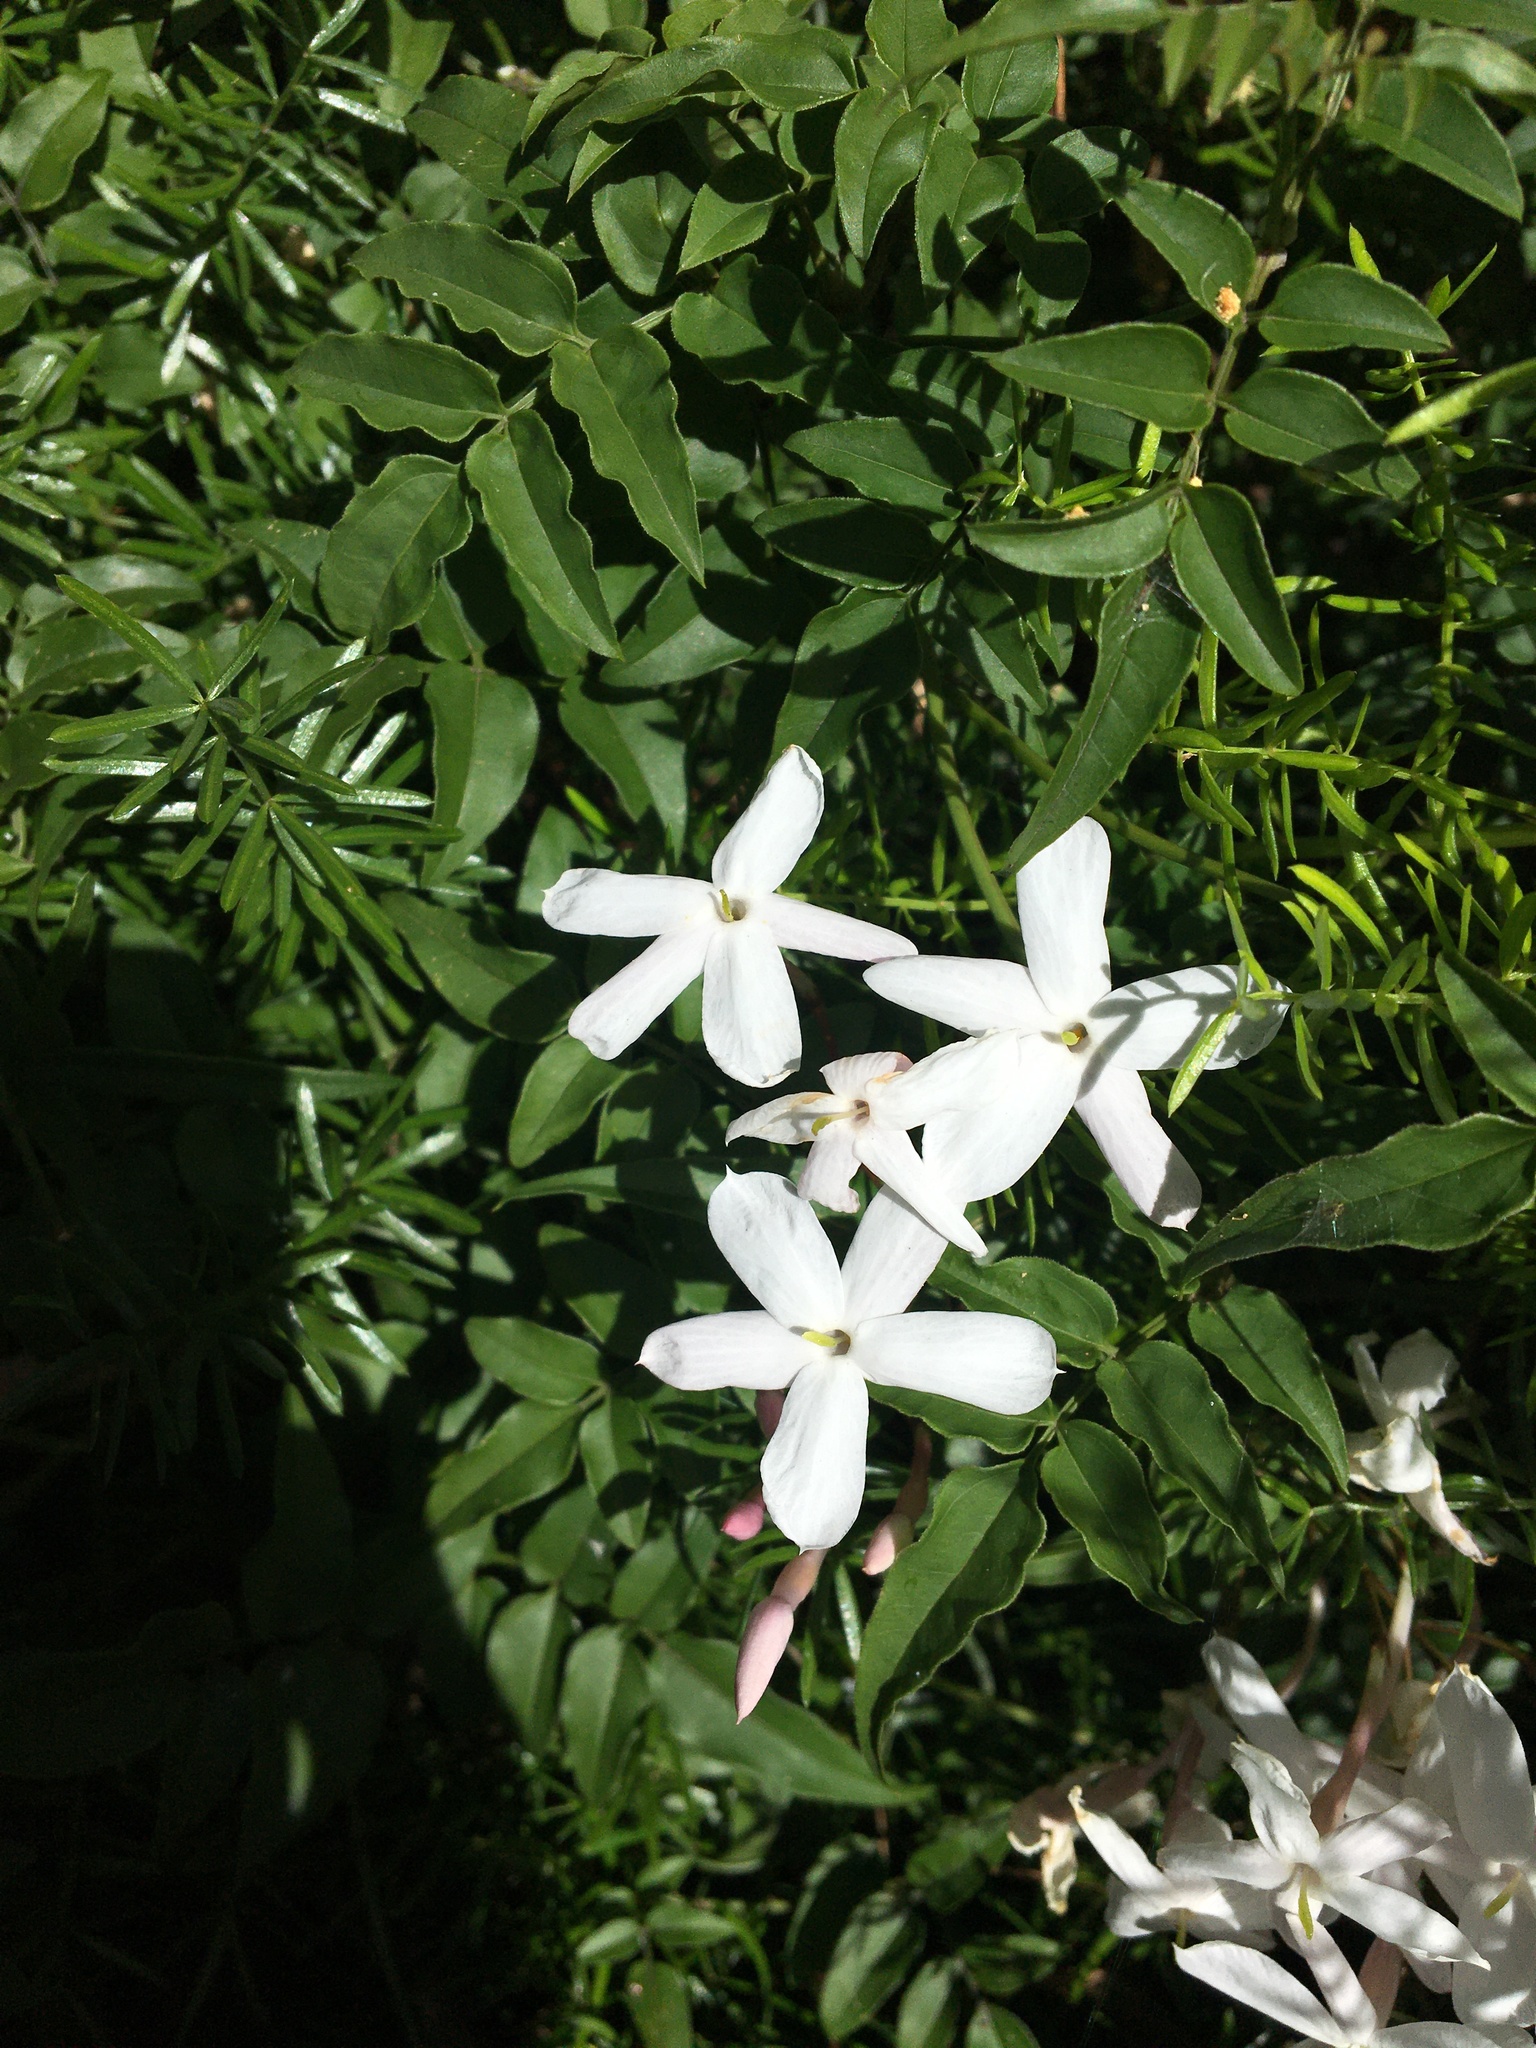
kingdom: Plantae
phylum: Tracheophyta
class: Magnoliopsida
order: Lamiales
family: Oleaceae
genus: Jasminum
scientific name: Jasminum polyanthum
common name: Pink jasmine
